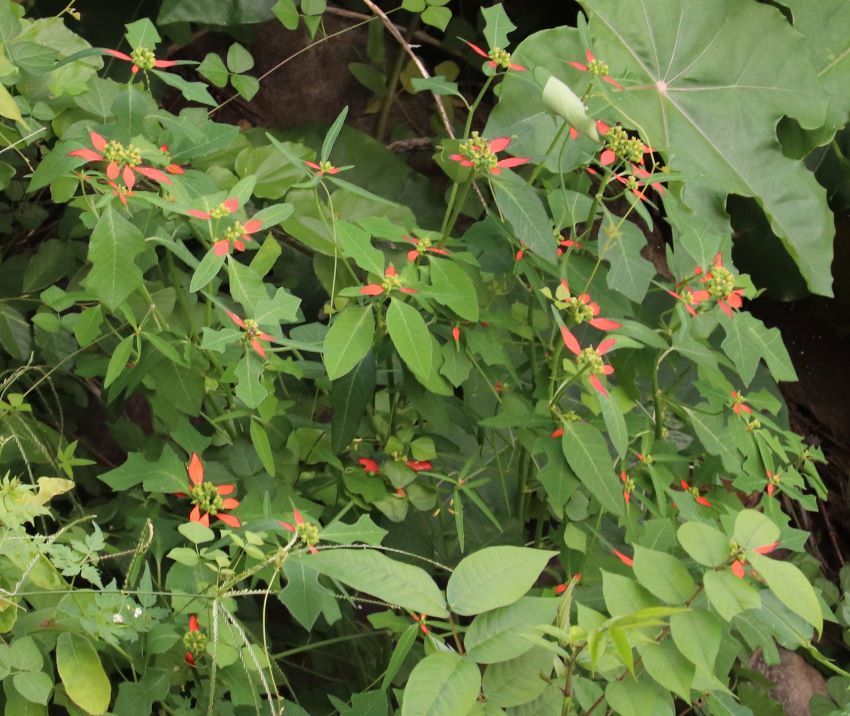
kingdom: Plantae
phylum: Tracheophyta
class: Magnoliopsida
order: Malpighiales
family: Euphorbiaceae
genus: Euphorbia
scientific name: Euphorbia heterophylla
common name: Mexican fireplant
